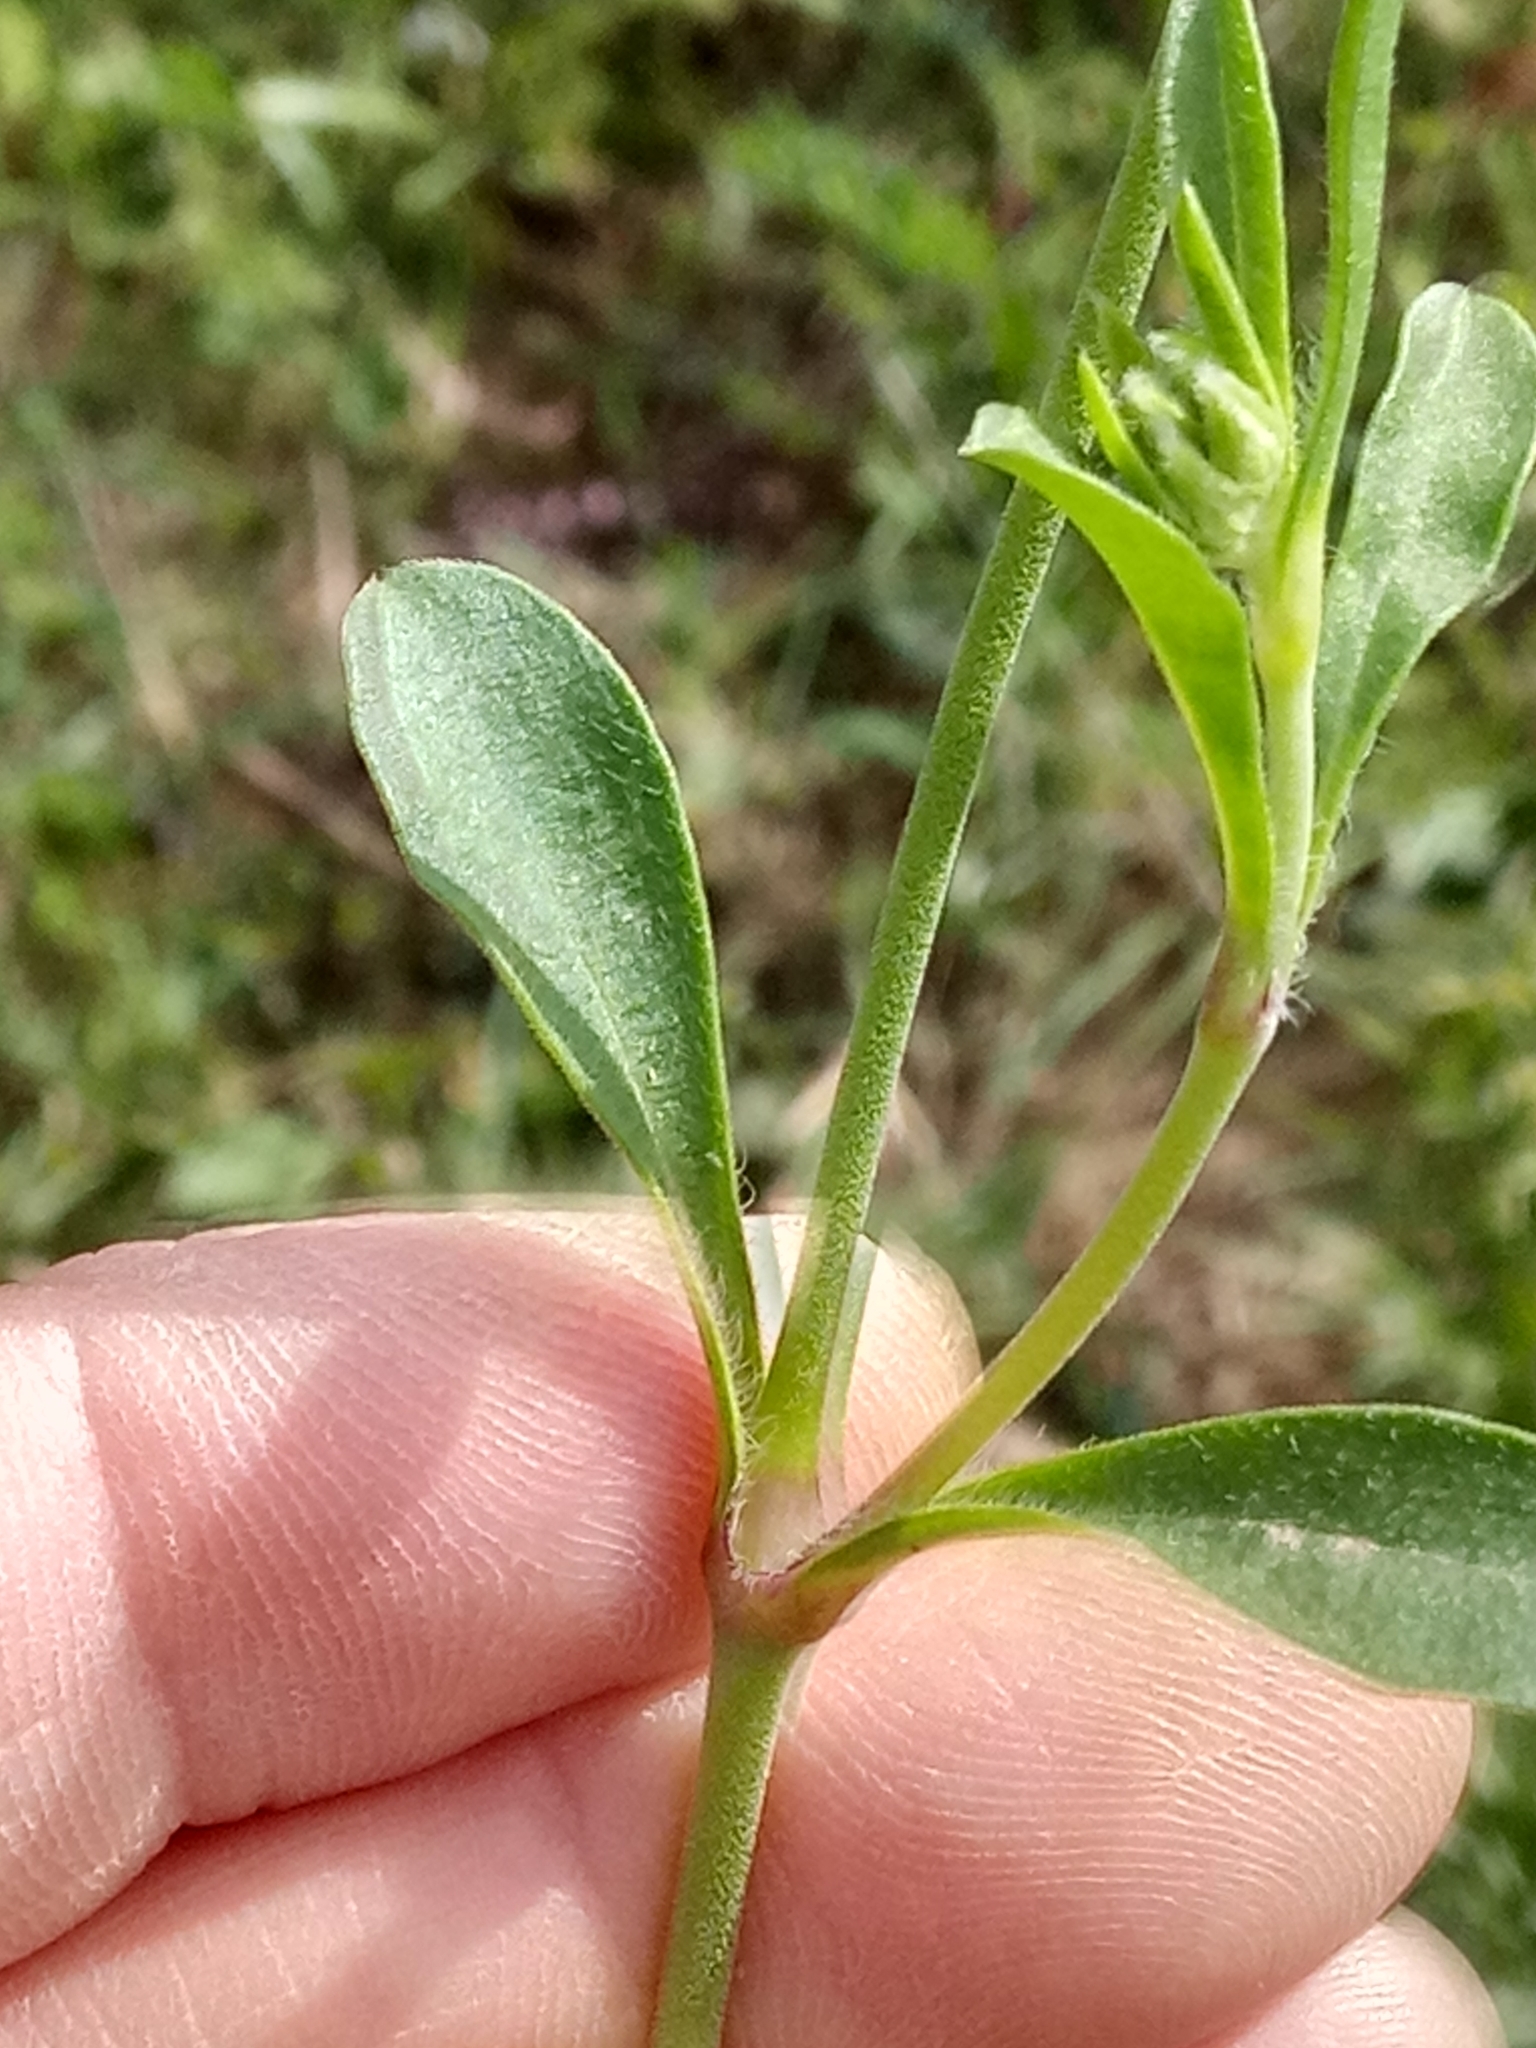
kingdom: Plantae
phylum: Tracheophyta
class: Magnoliopsida
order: Malpighiales
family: Euphorbiaceae
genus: Euphorbia
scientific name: Euphorbia helioscopia
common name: Sun spurge
